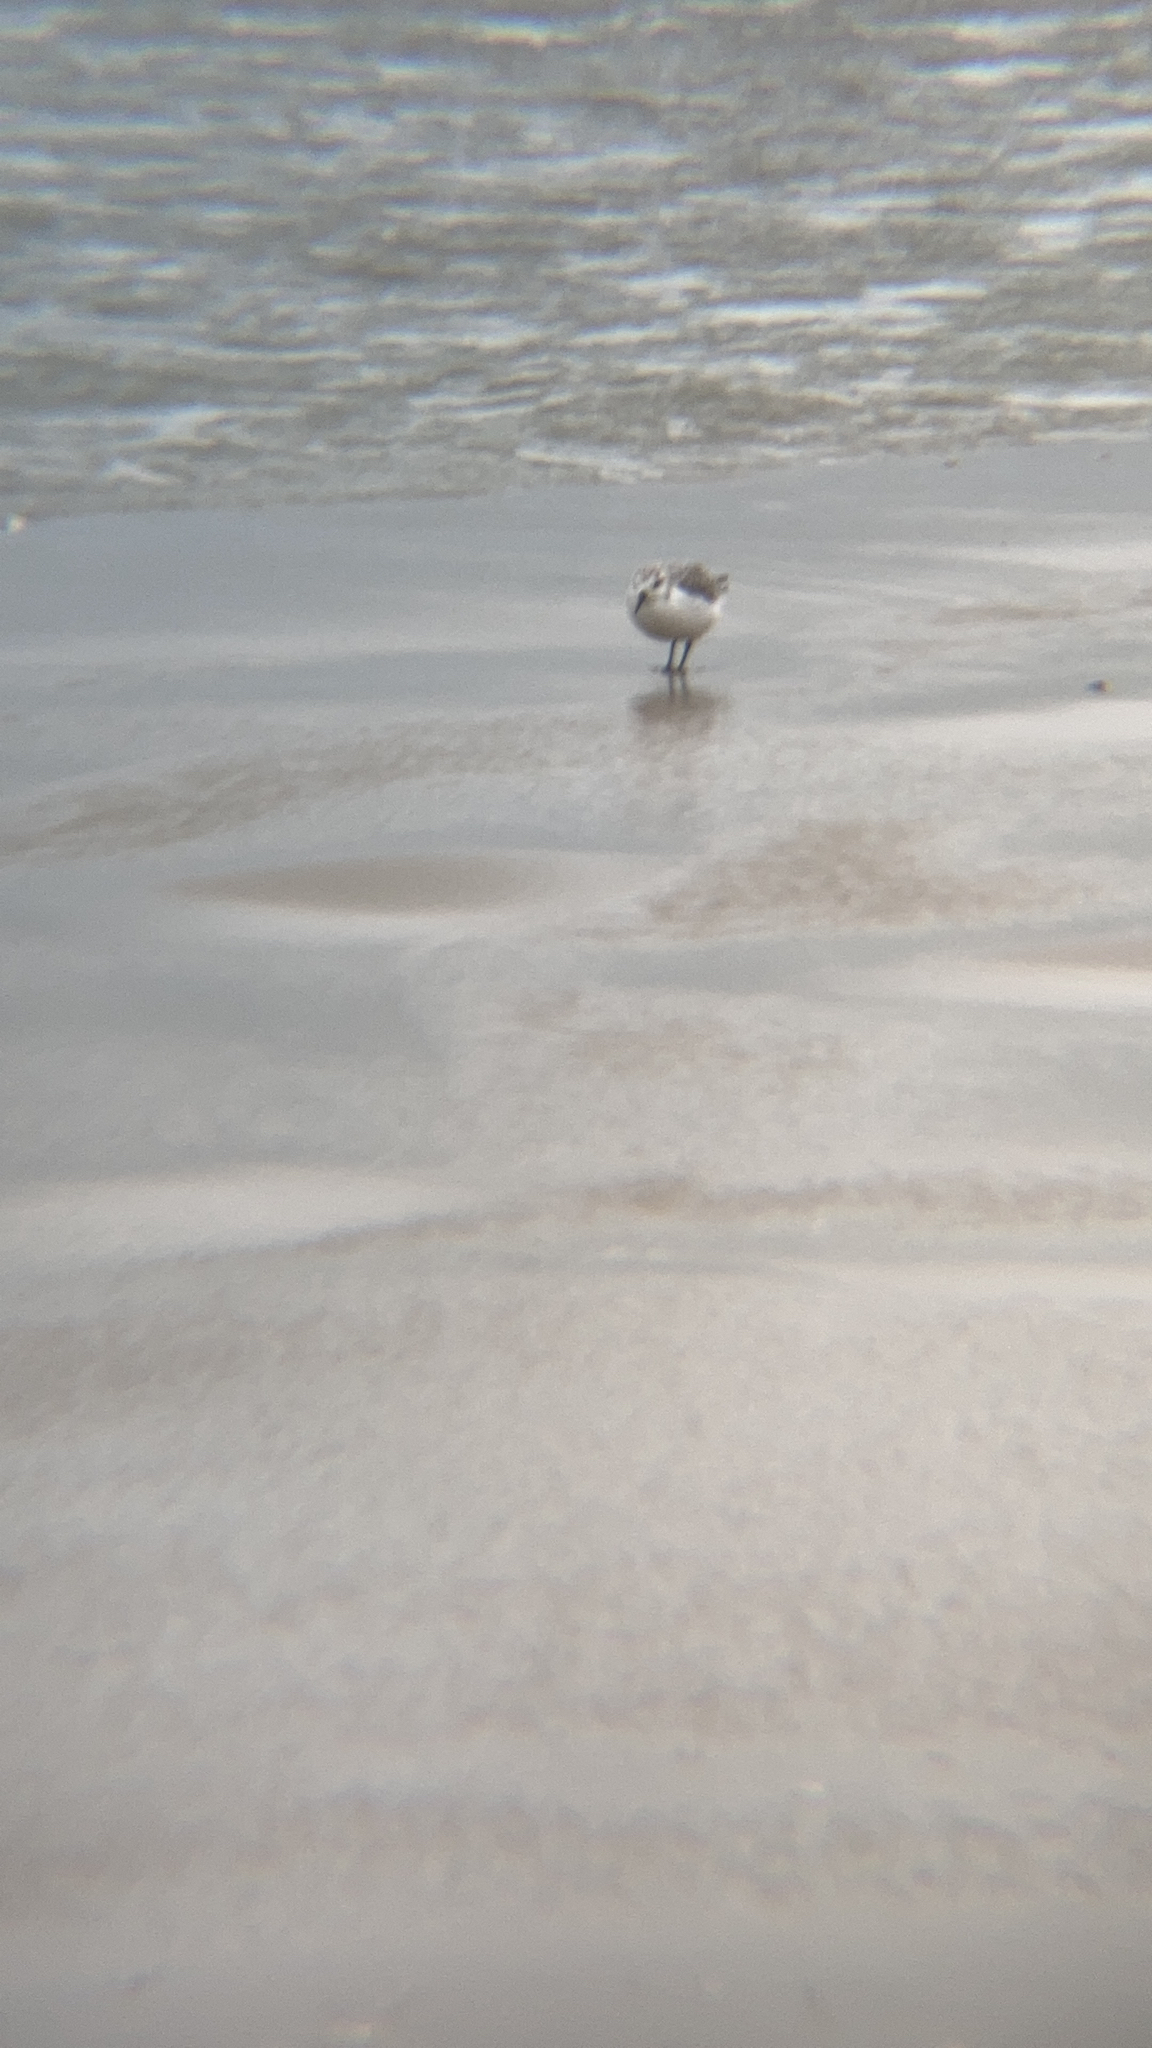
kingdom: Animalia
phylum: Chordata
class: Aves
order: Charadriiformes
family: Scolopacidae
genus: Calidris
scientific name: Calidris alba
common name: Sanderling
